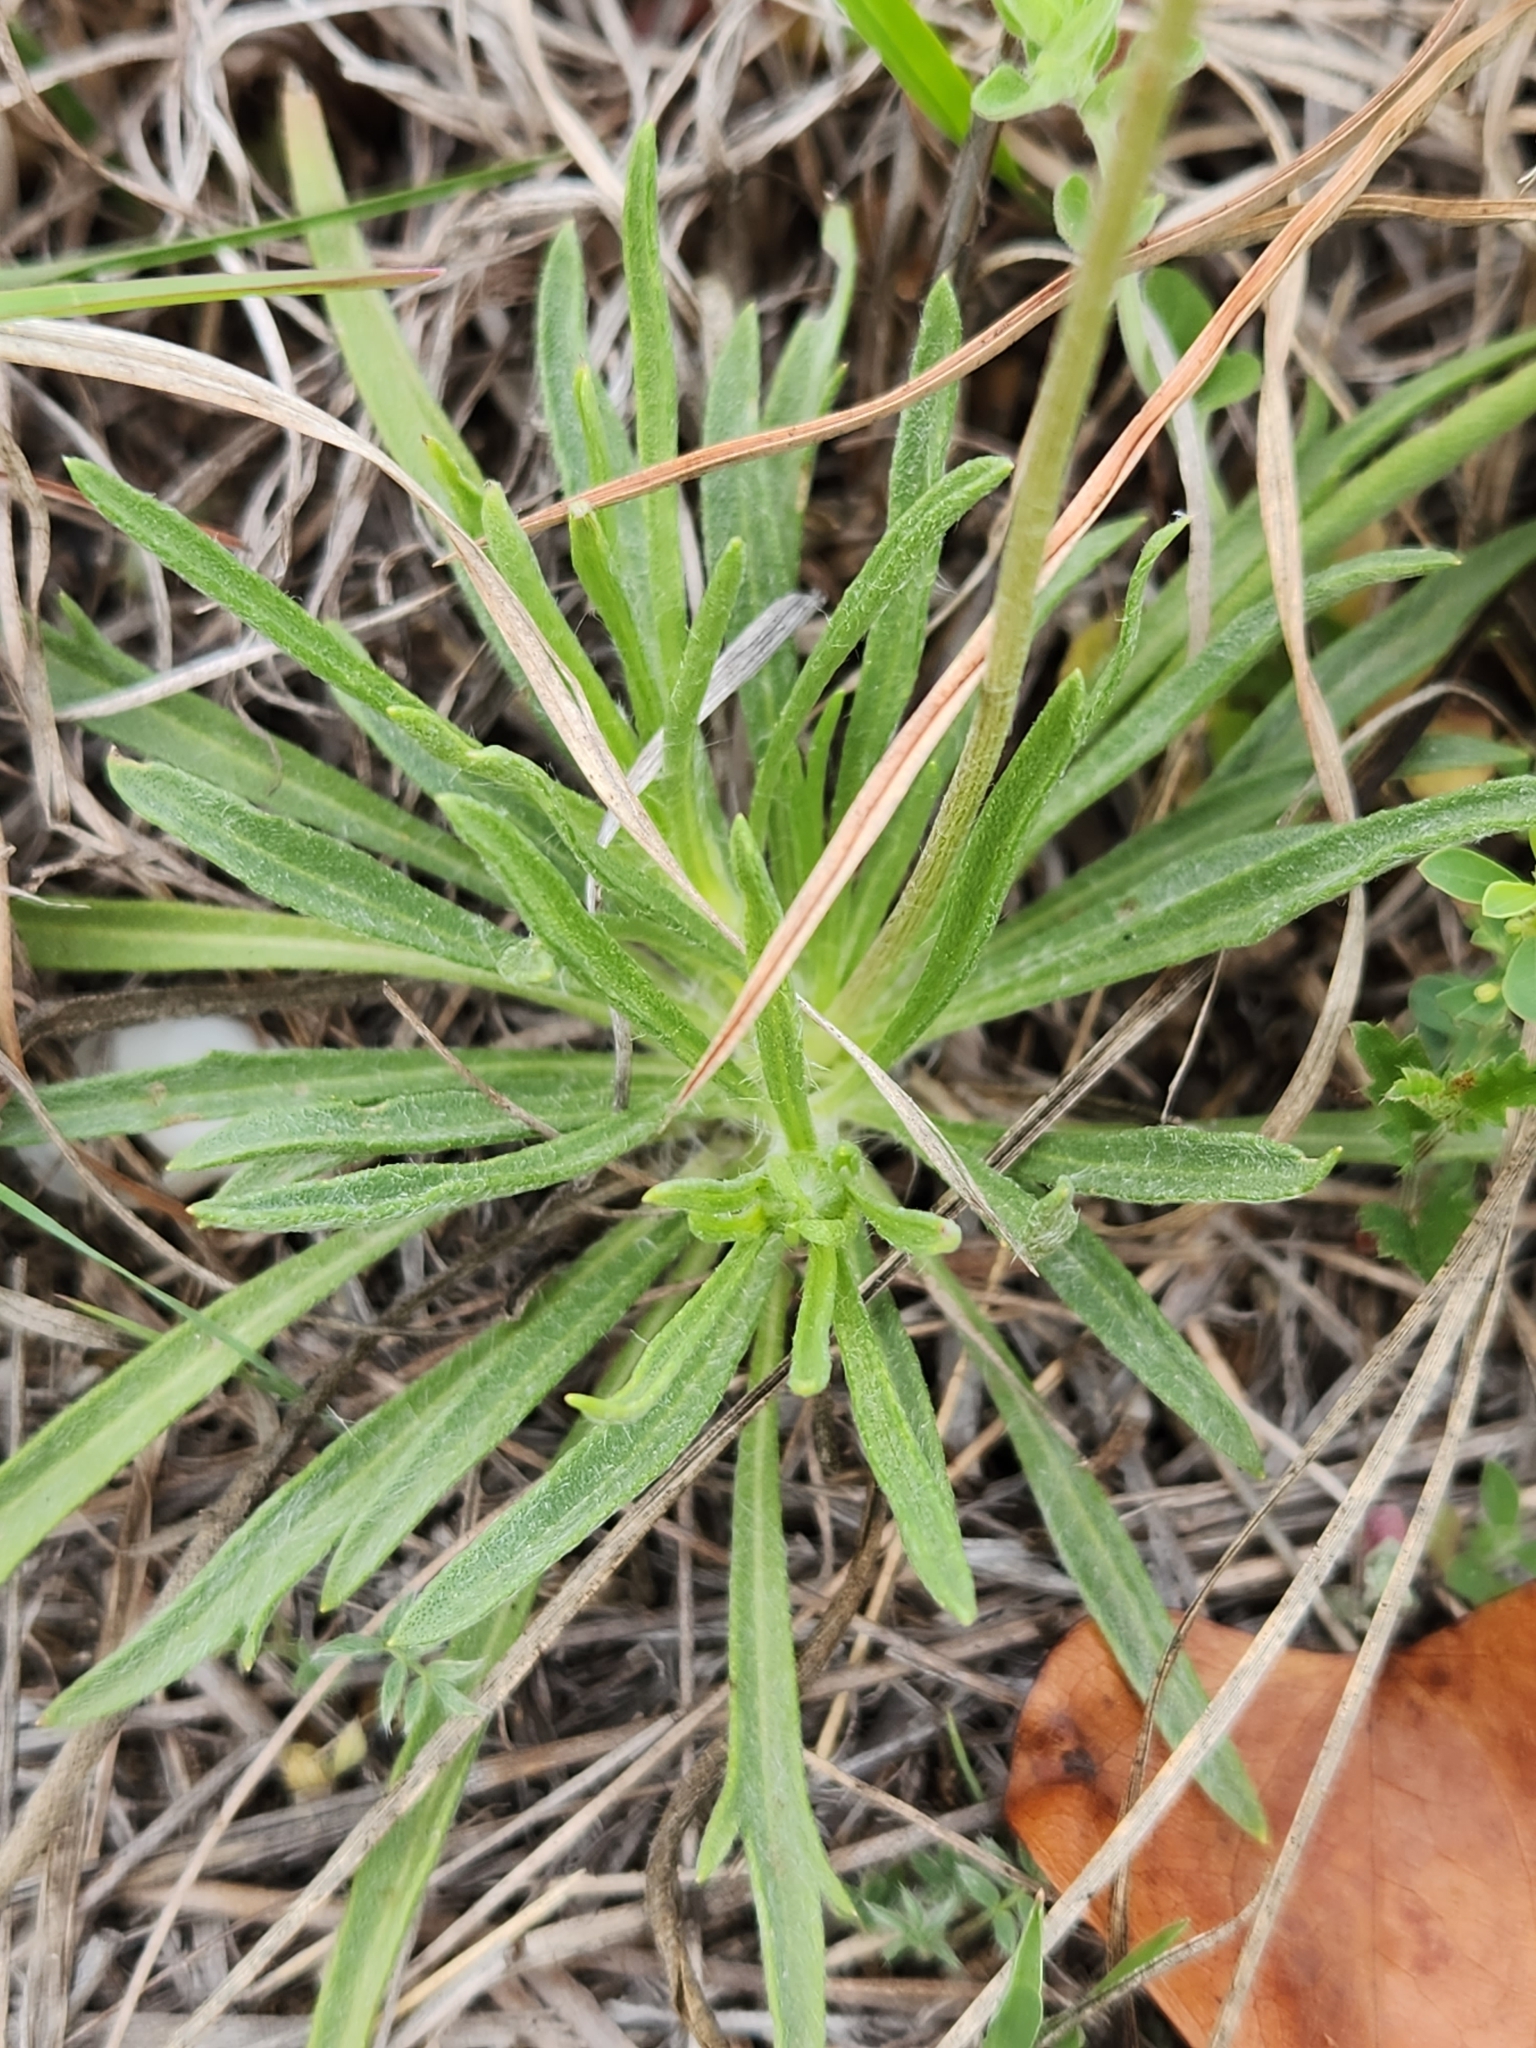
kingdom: Plantae
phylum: Tracheophyta
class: Magnoliopsida
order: Asterales
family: Asteraceae
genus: Tetraneuris
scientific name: Tetraneuris scaposa
